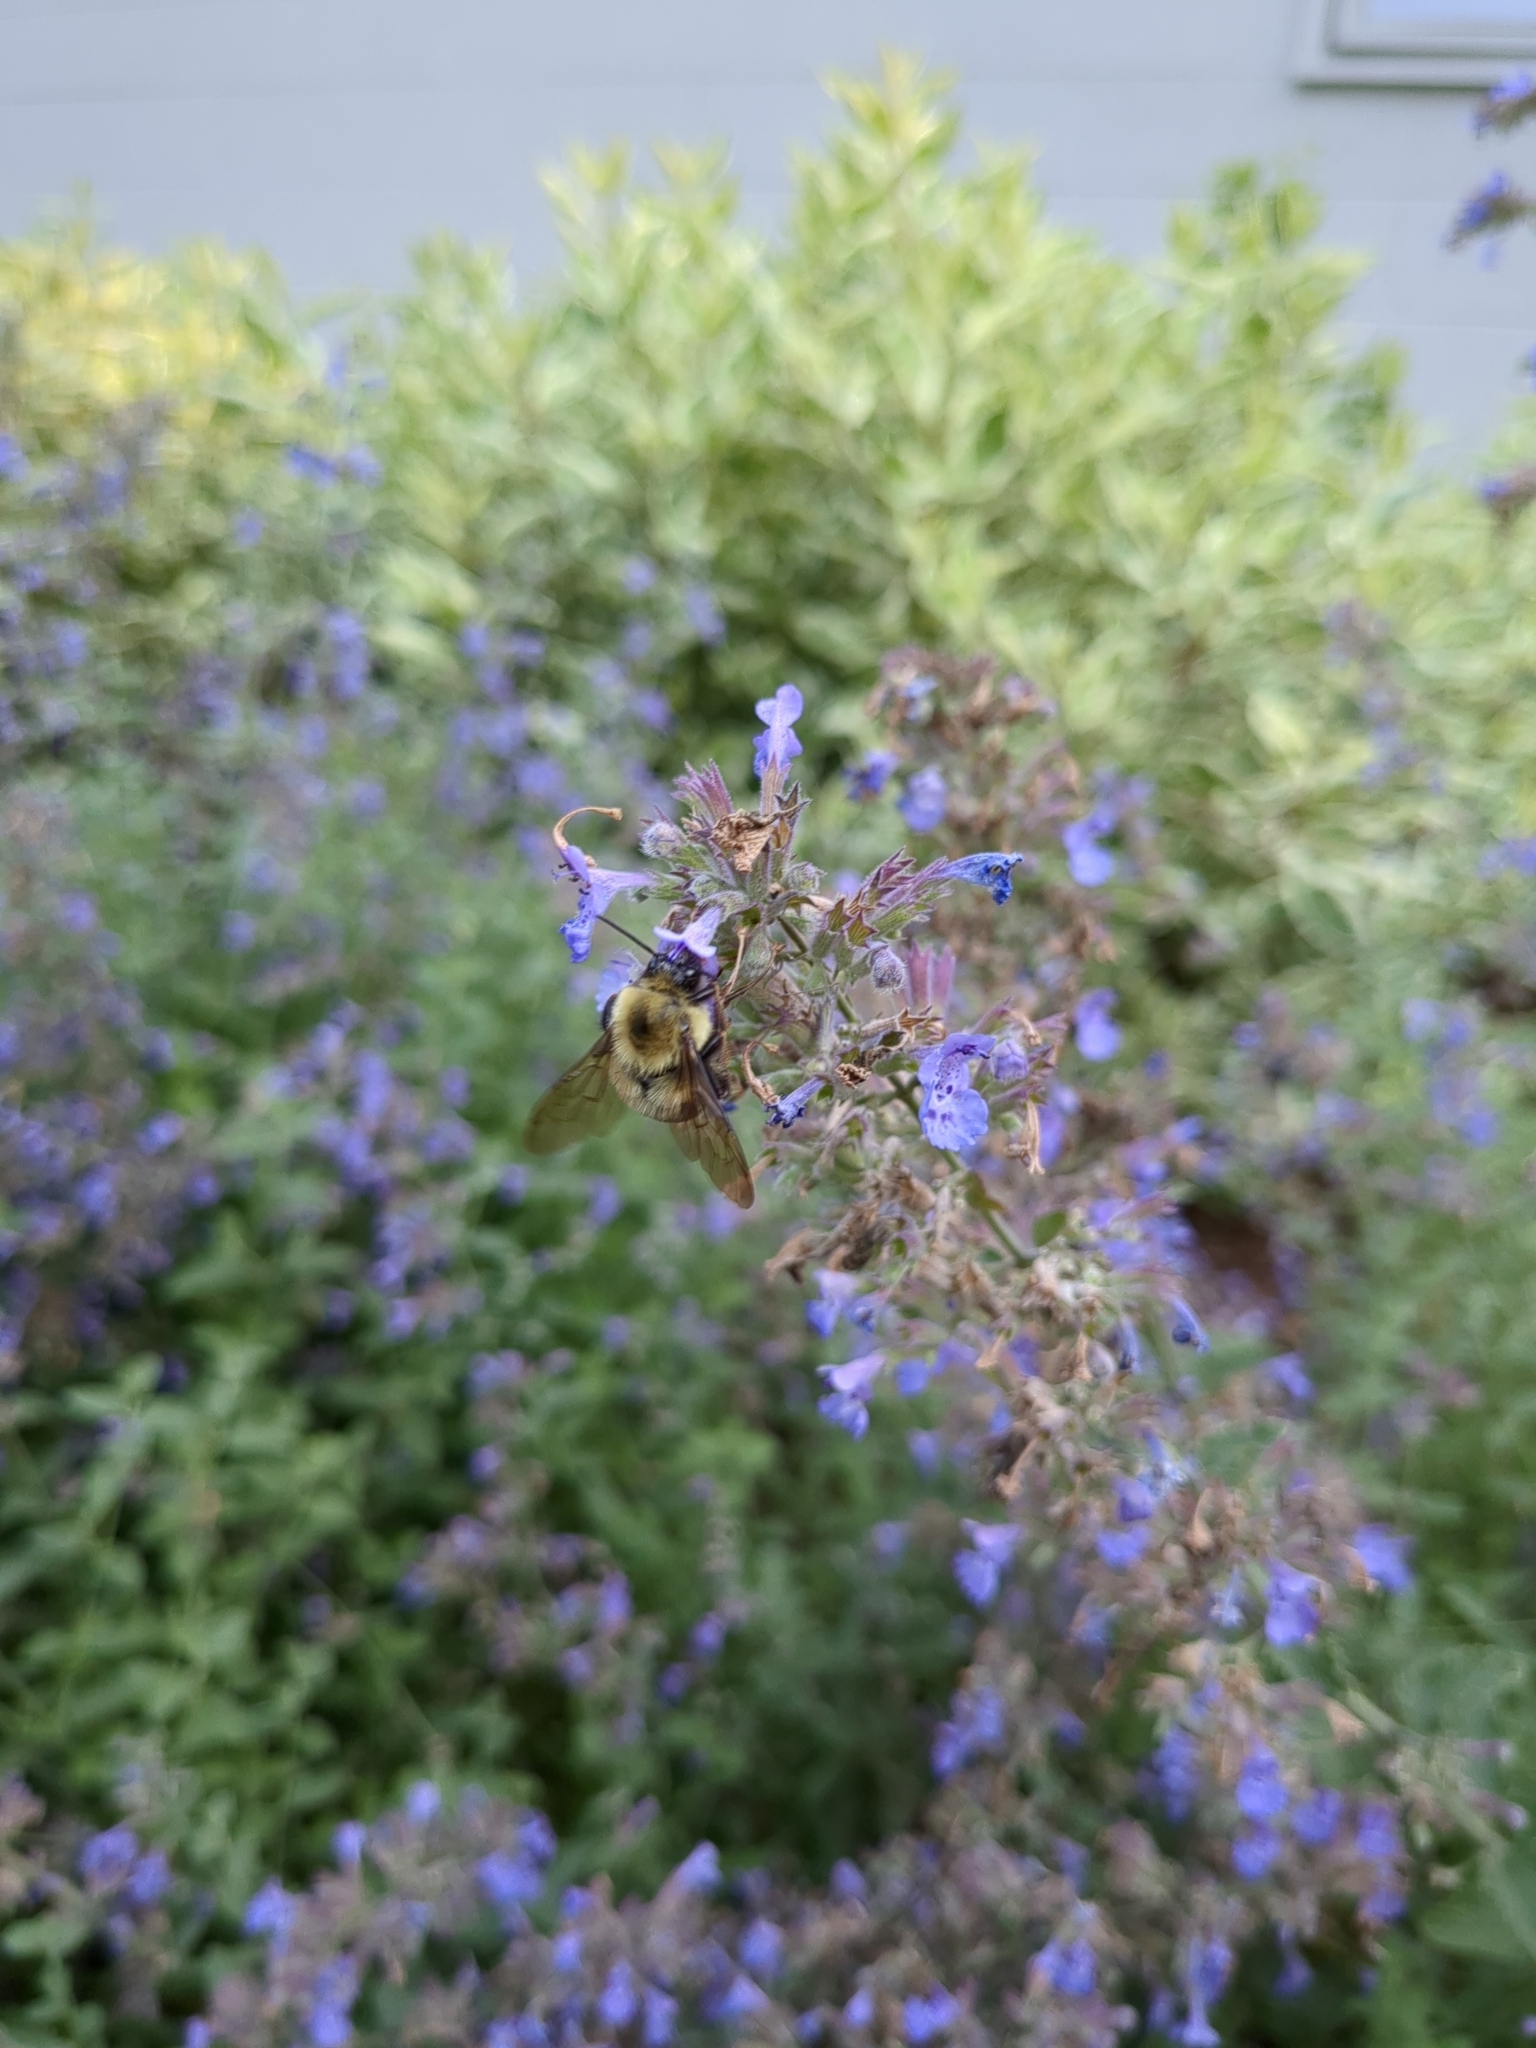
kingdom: Animalia
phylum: Arthropoda
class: Insecta
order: Hymenoptera
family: Apidae
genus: Bombus
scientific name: Bombus bimaculatus
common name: Two-spotted bumble bee
